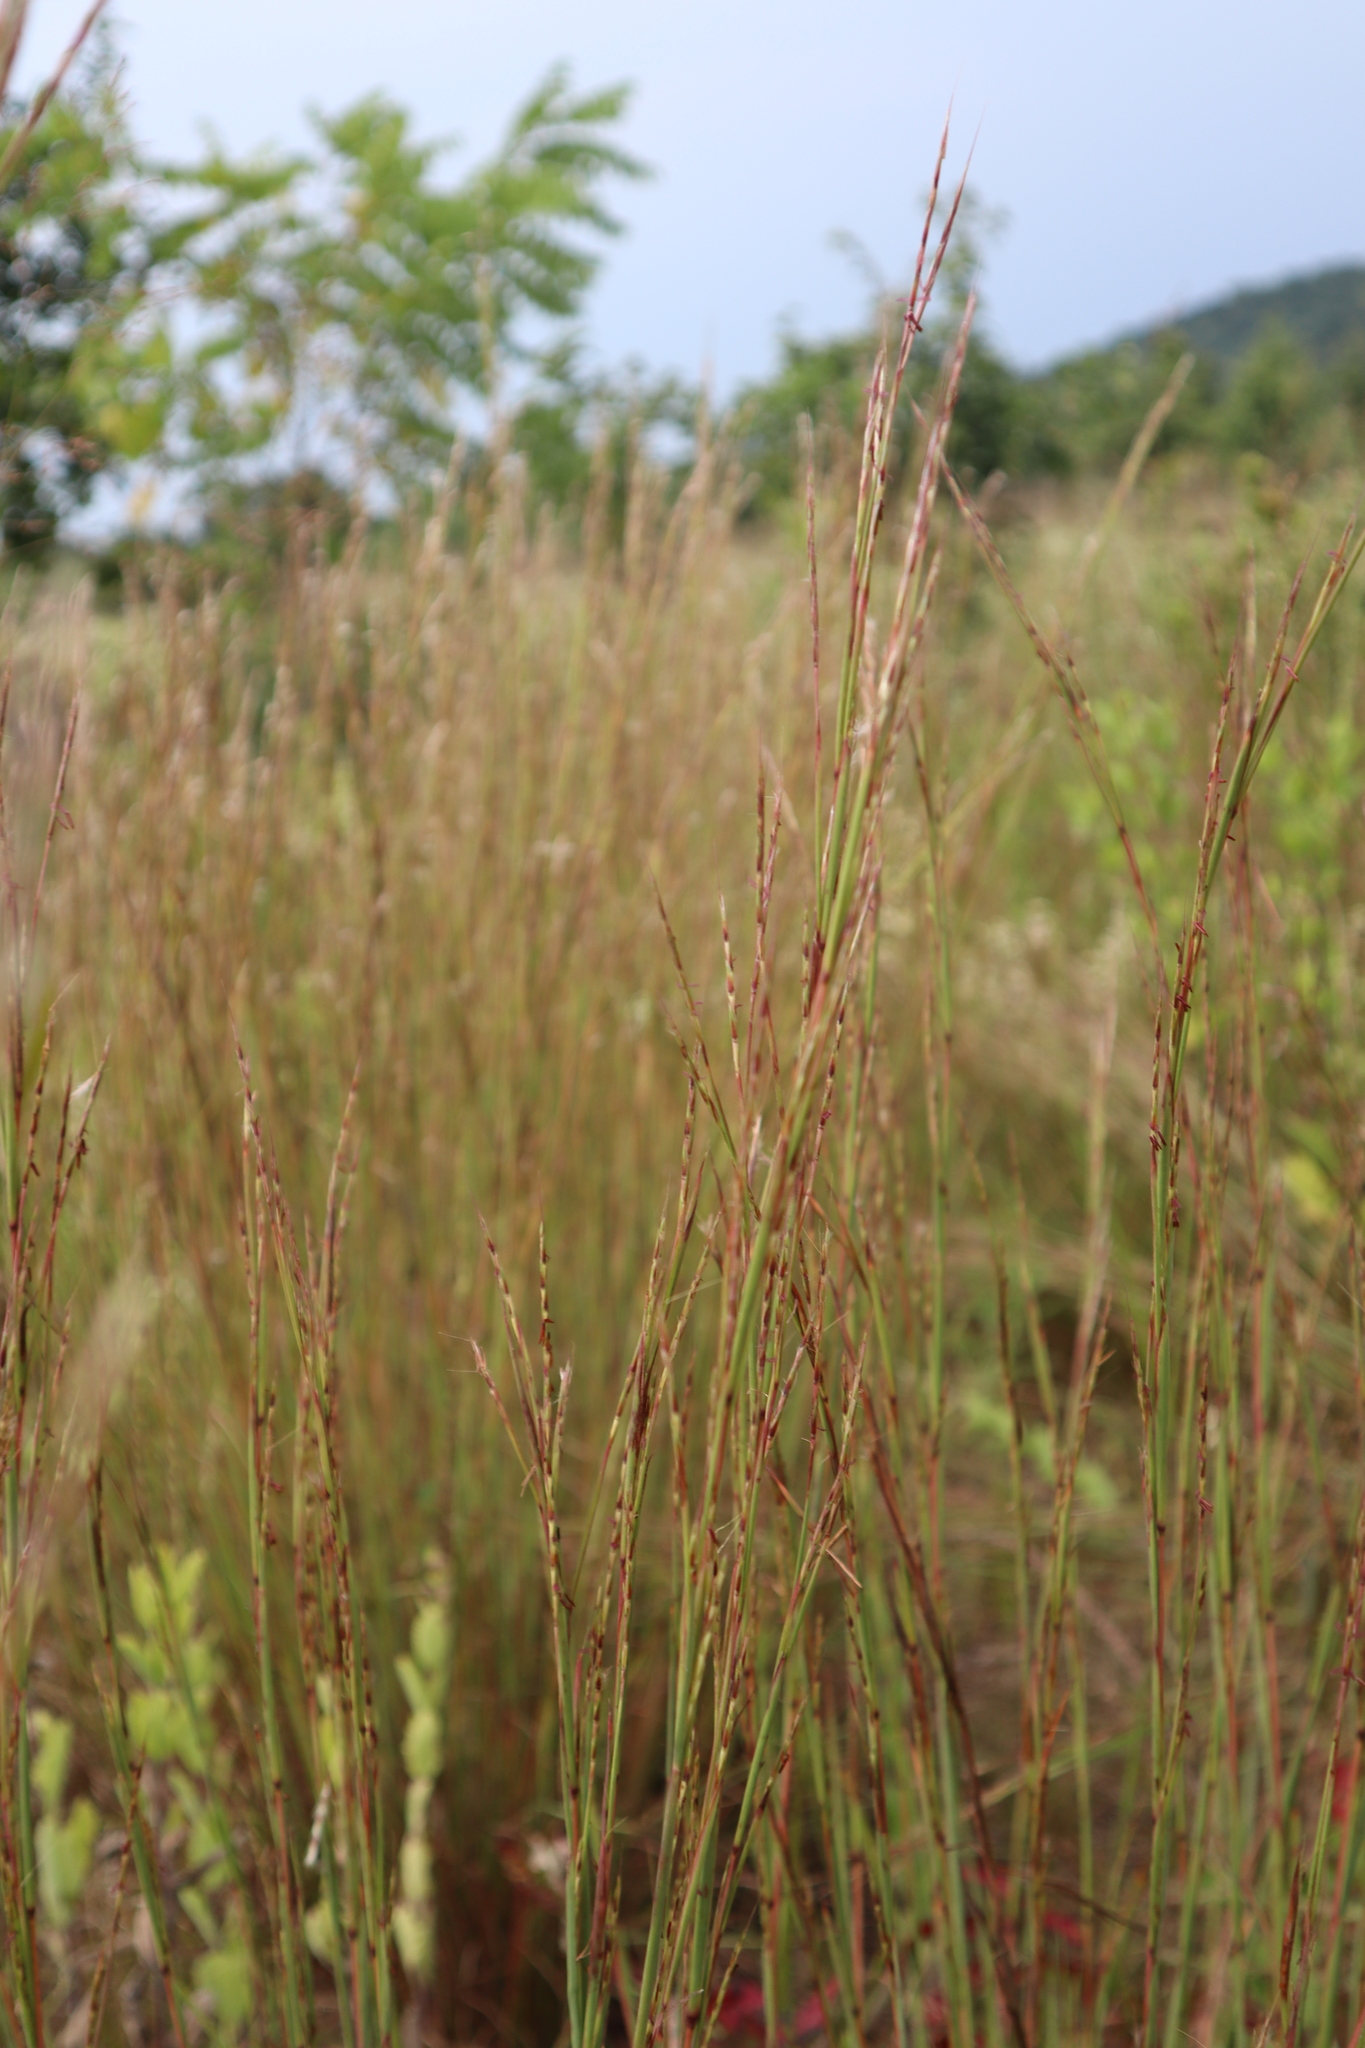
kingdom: Plantae
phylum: Tracheophyta
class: Liliopsida
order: Poales
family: Poaceae
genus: Schizachyrium
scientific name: Schizachyrium scoparium
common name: Little bluestem
